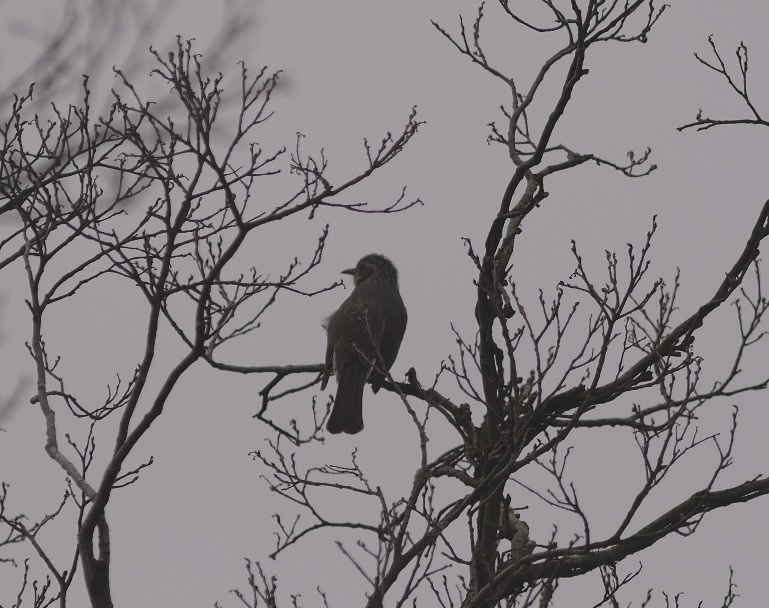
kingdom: Animalia
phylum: Chordata
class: Aves
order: Passeriformes
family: Pycnonotidae
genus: Hypsipetes
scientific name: Hypsipetes amaurotis
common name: Brown-eared bulbul
